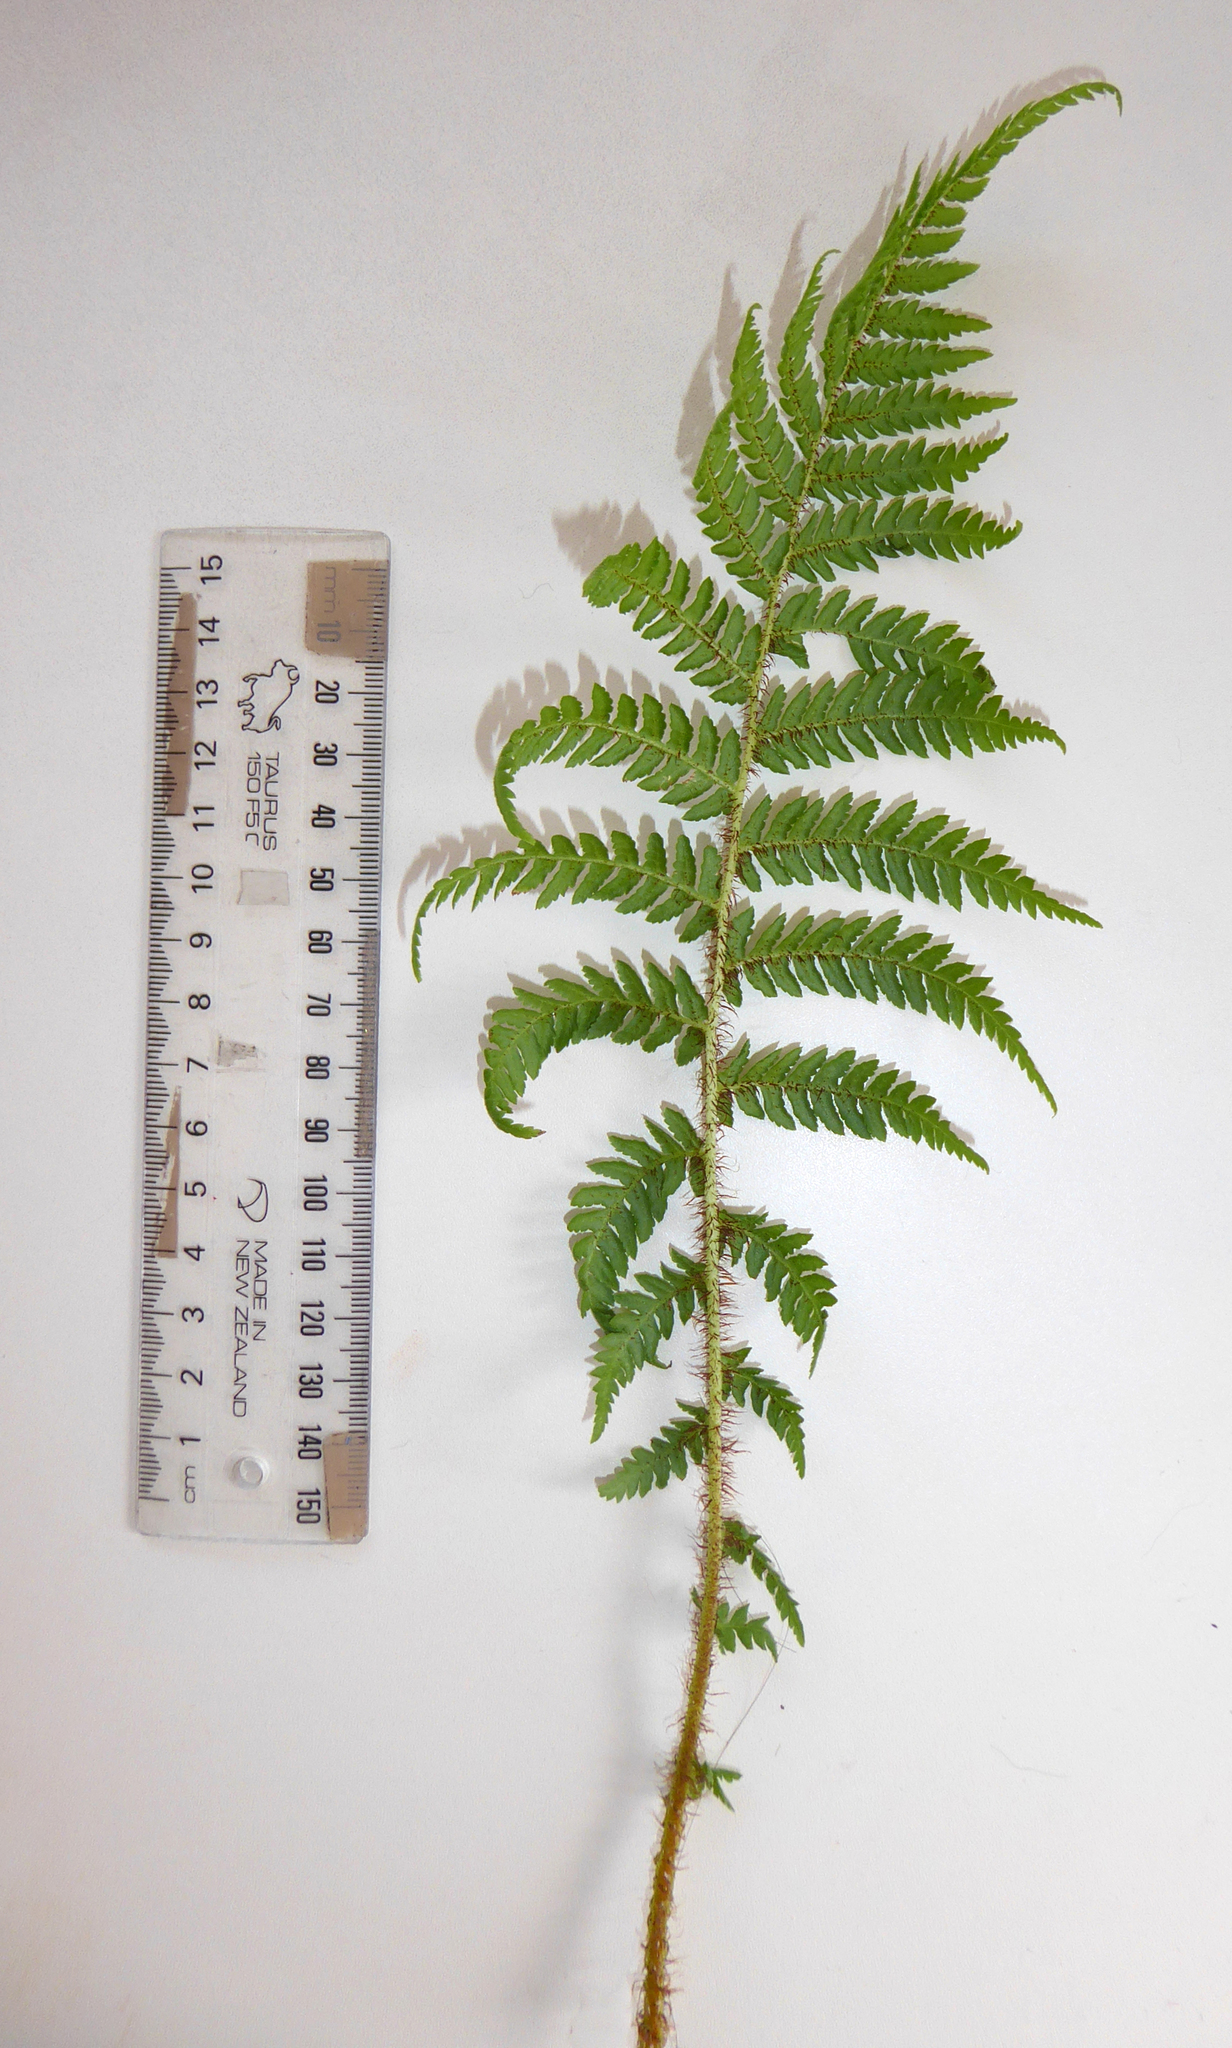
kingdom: Plantae
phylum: Tracheophyta
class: Polypodiopsida
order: Cyatheales
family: Cyatheaceae
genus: Sphaeropteris
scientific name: Sphaeropteris cooperi
